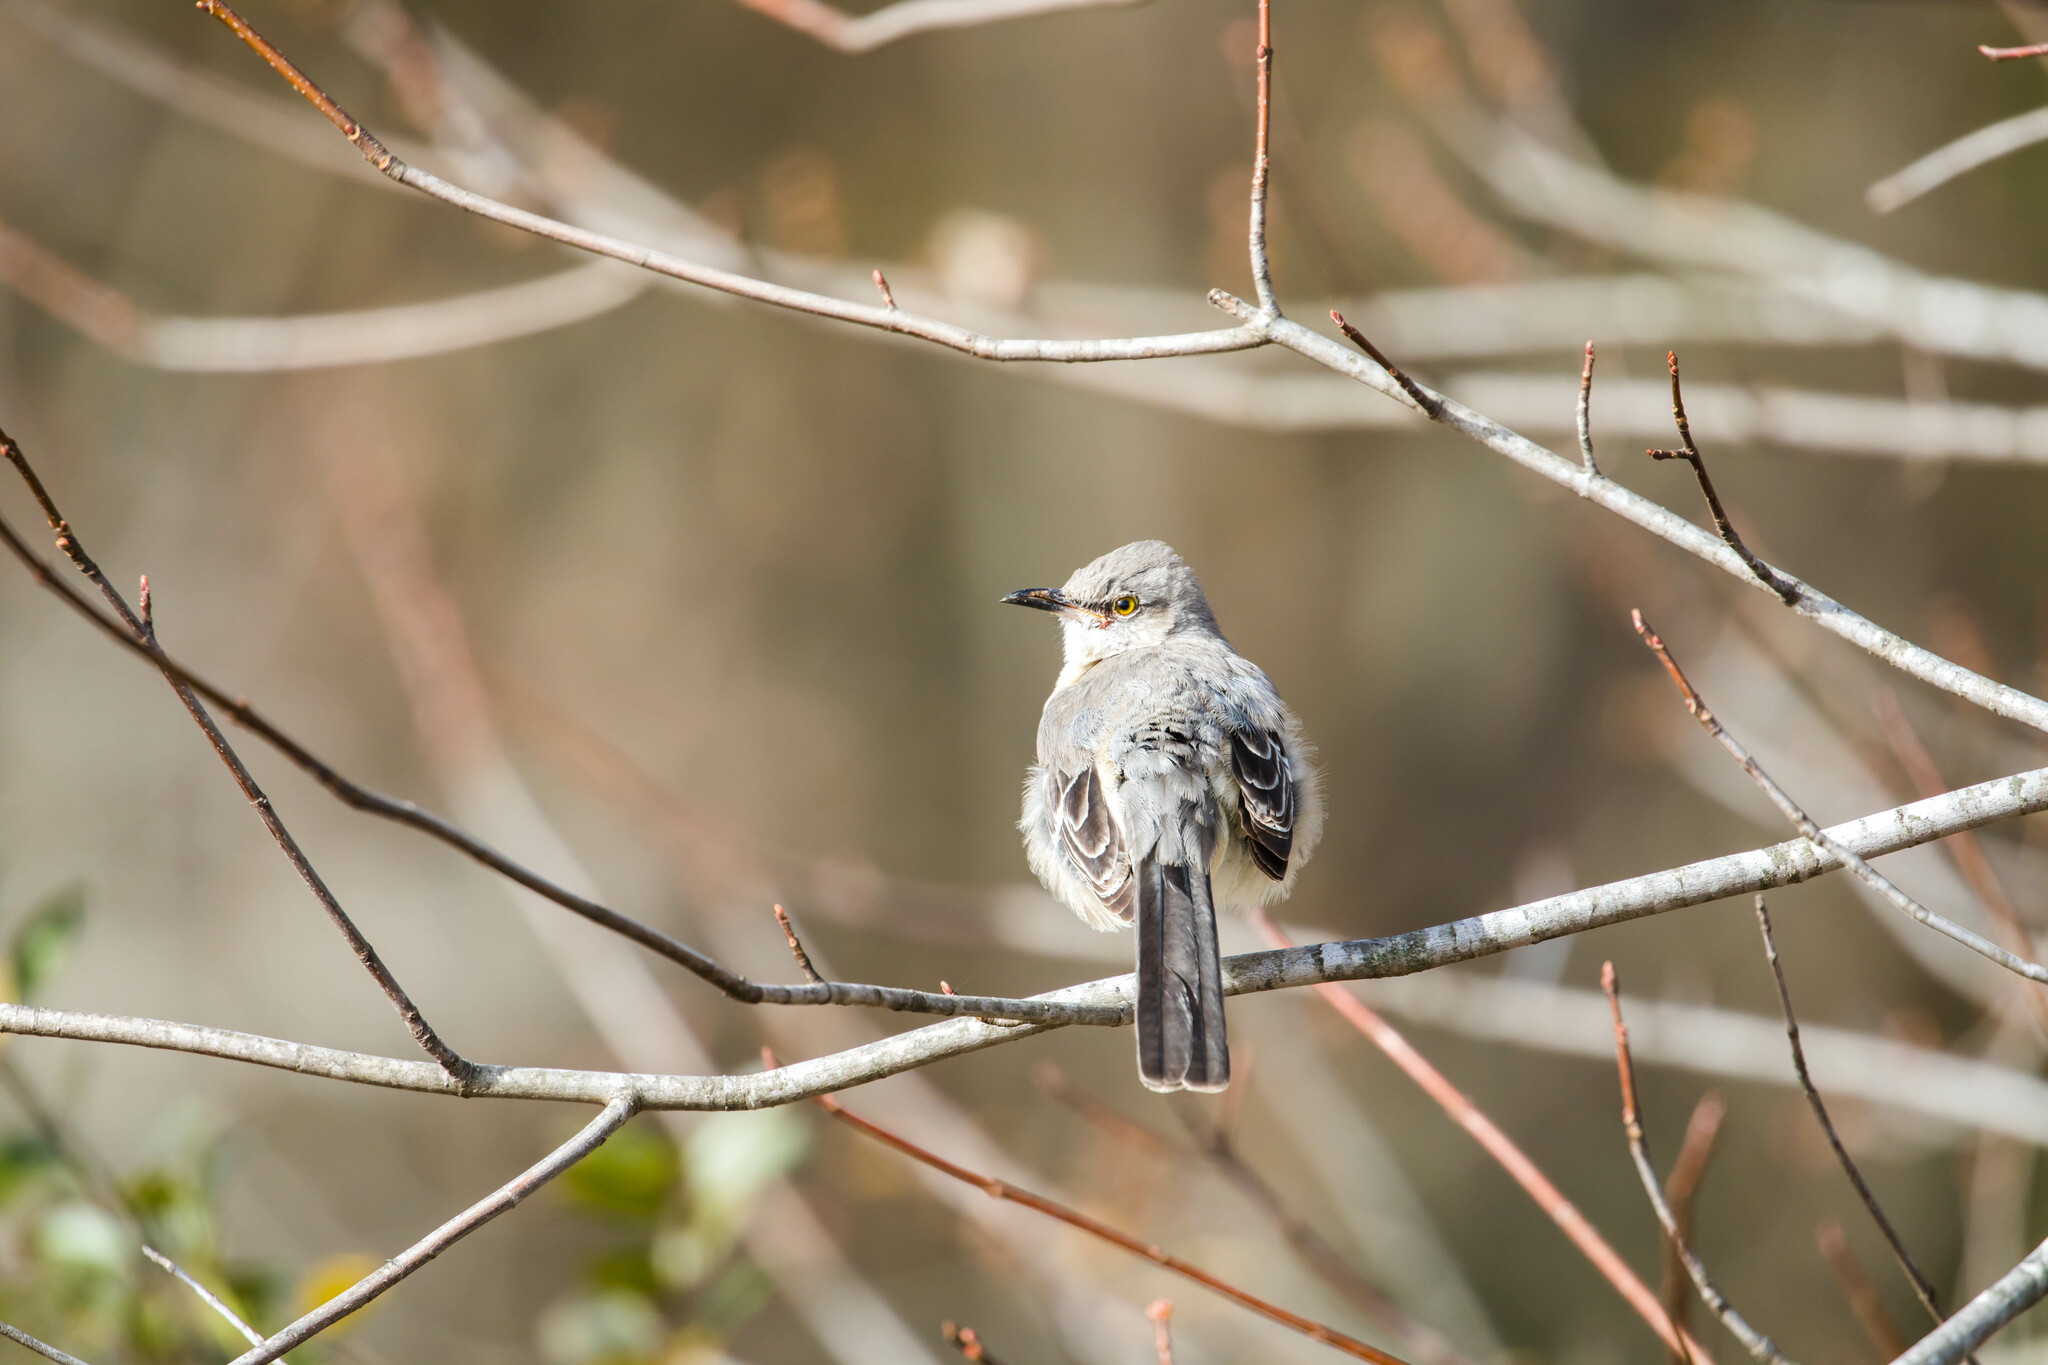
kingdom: Animalia
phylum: Chordata
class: Aves
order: Passeriformes
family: Mimidae
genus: Mimus
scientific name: Mimus polyglottos
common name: Northern mockingbird
